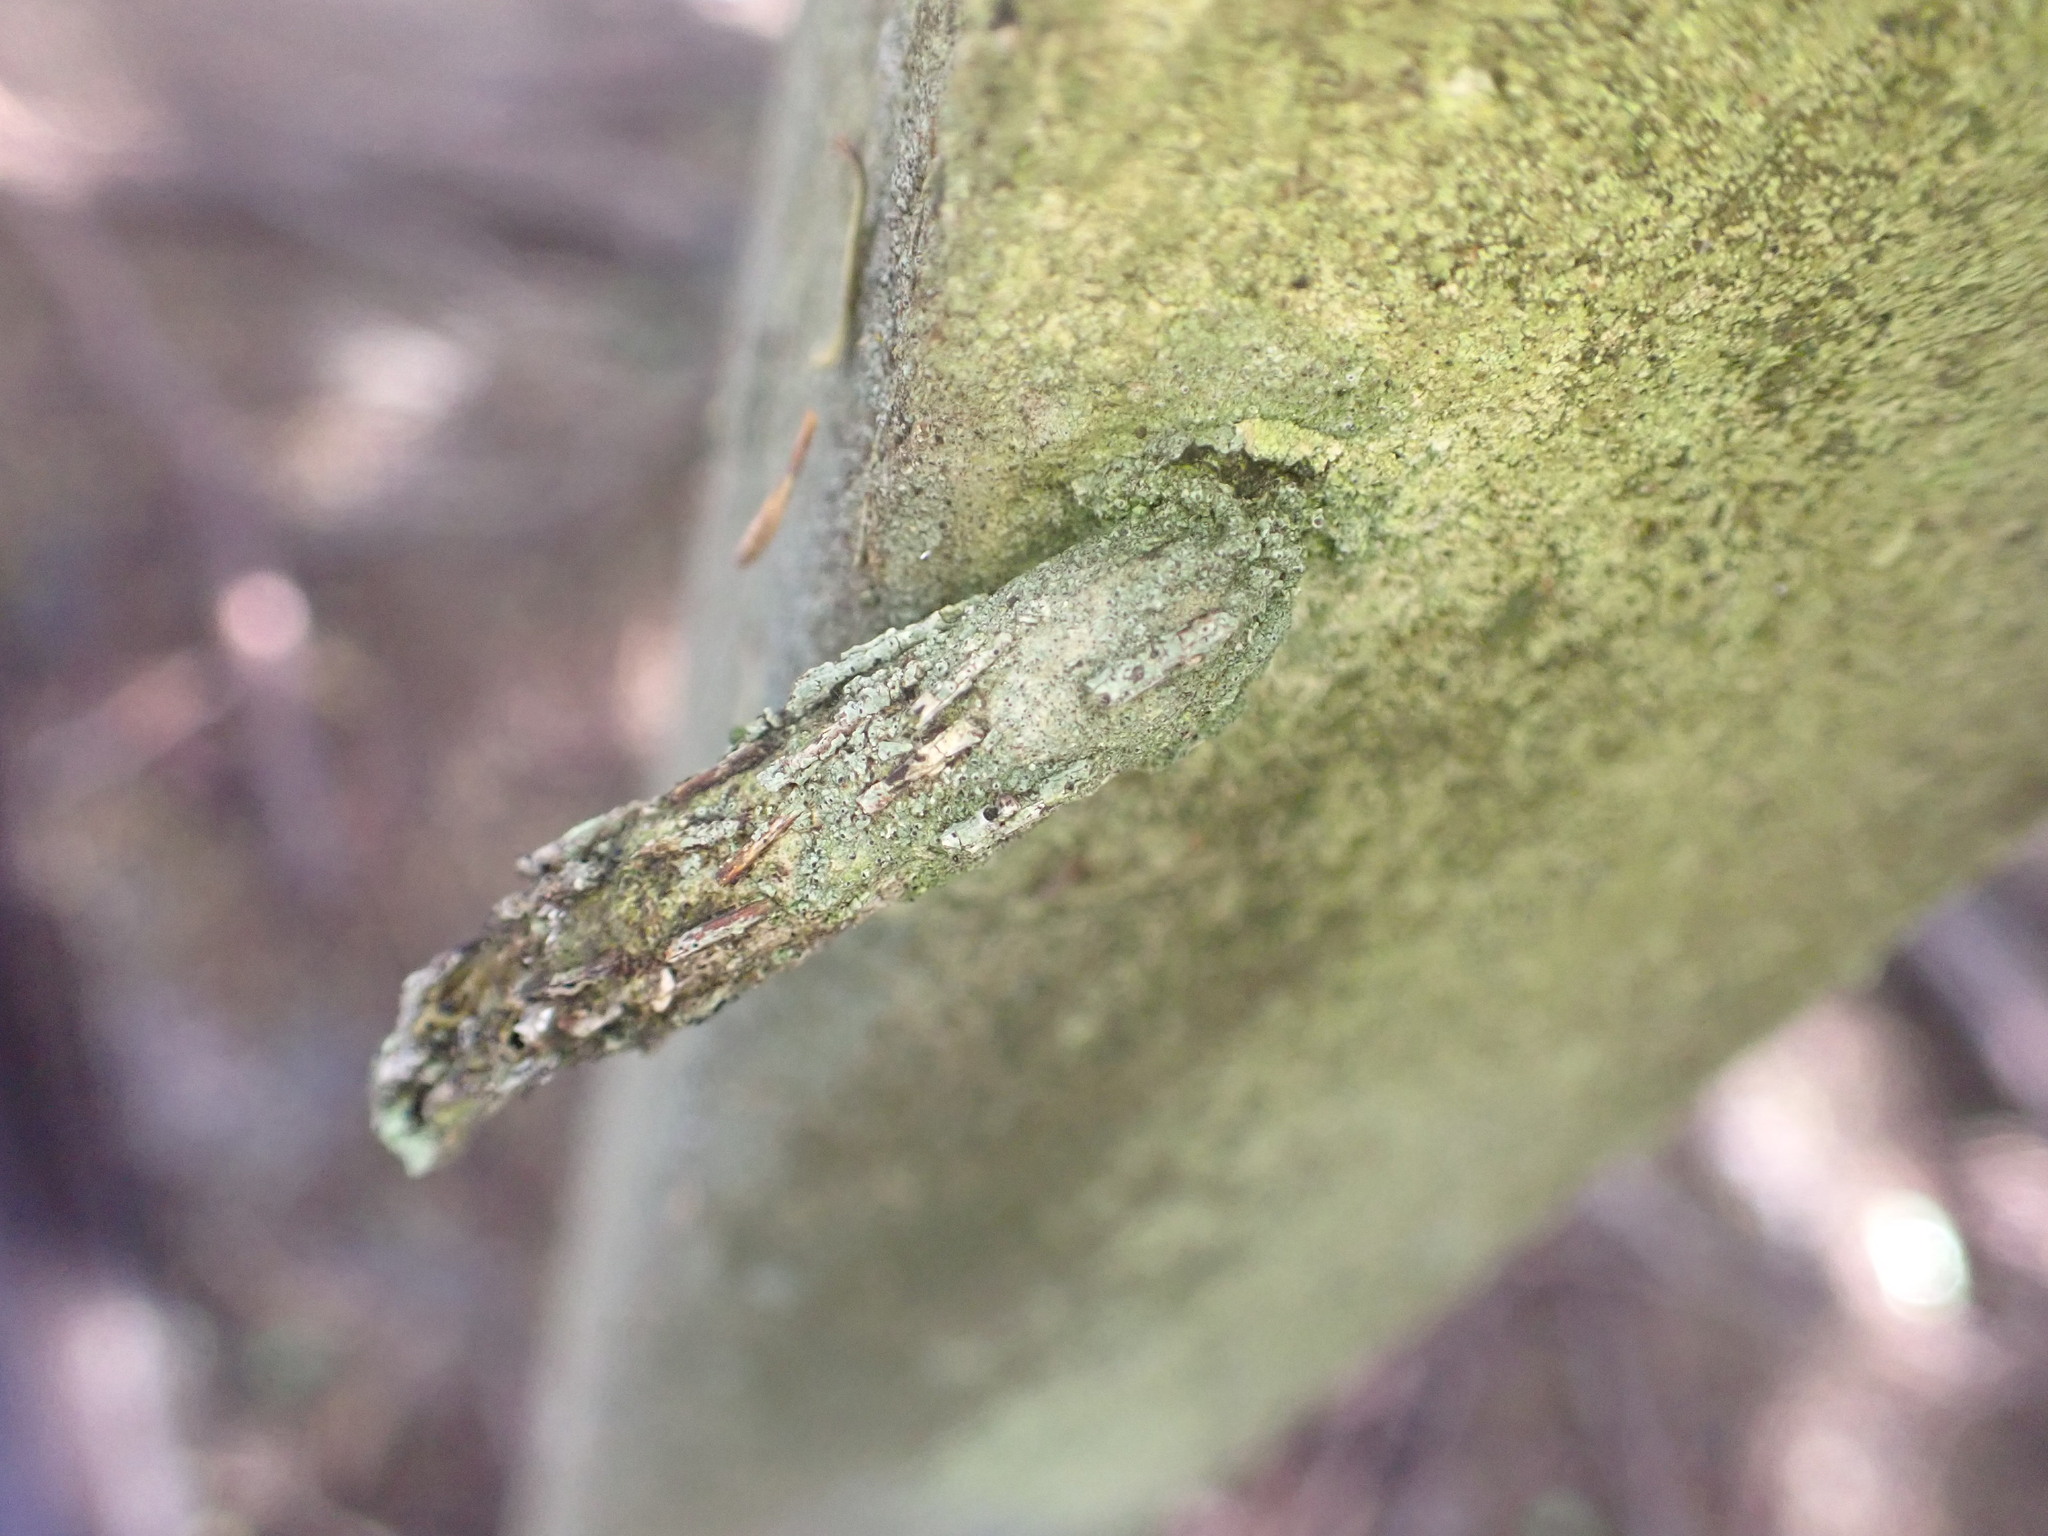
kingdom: Animalia
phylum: Arthropoda
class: Insecta
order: Lepidoptera
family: Psychidae
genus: Liothula
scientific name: Liothula omnivora
